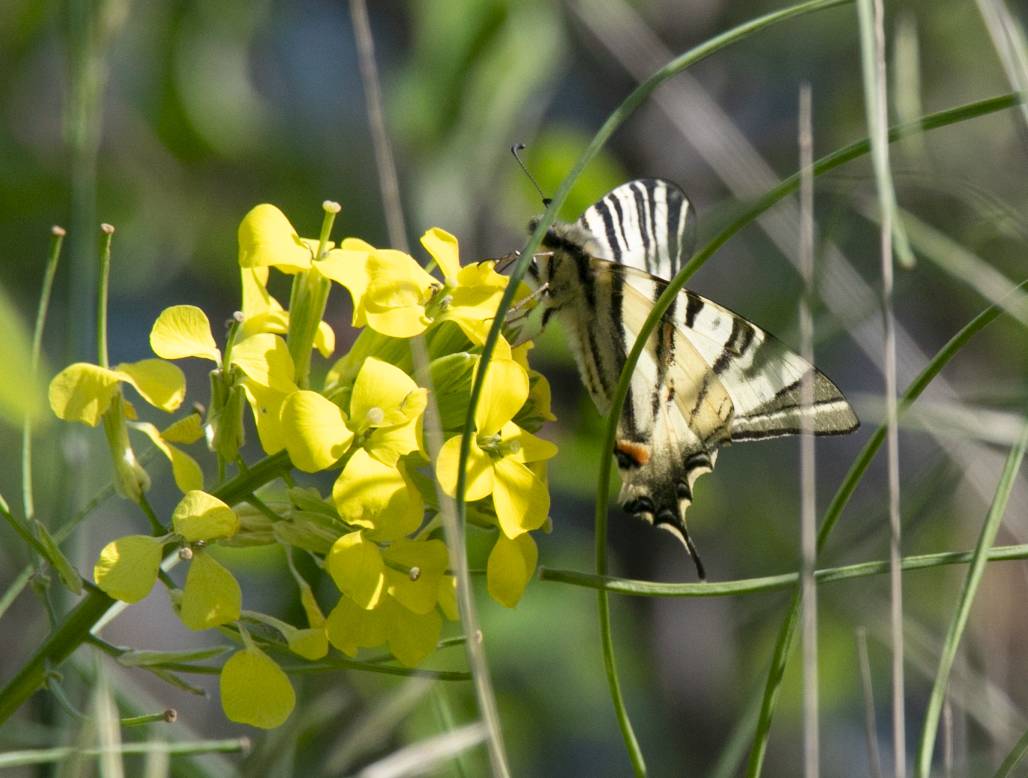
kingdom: Animalia
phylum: Arthropoda
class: Insecta
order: Lepidoptera
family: Papilionidae
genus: Iphiclides
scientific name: Iphiclides podalirius
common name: Scarce swallowtail
